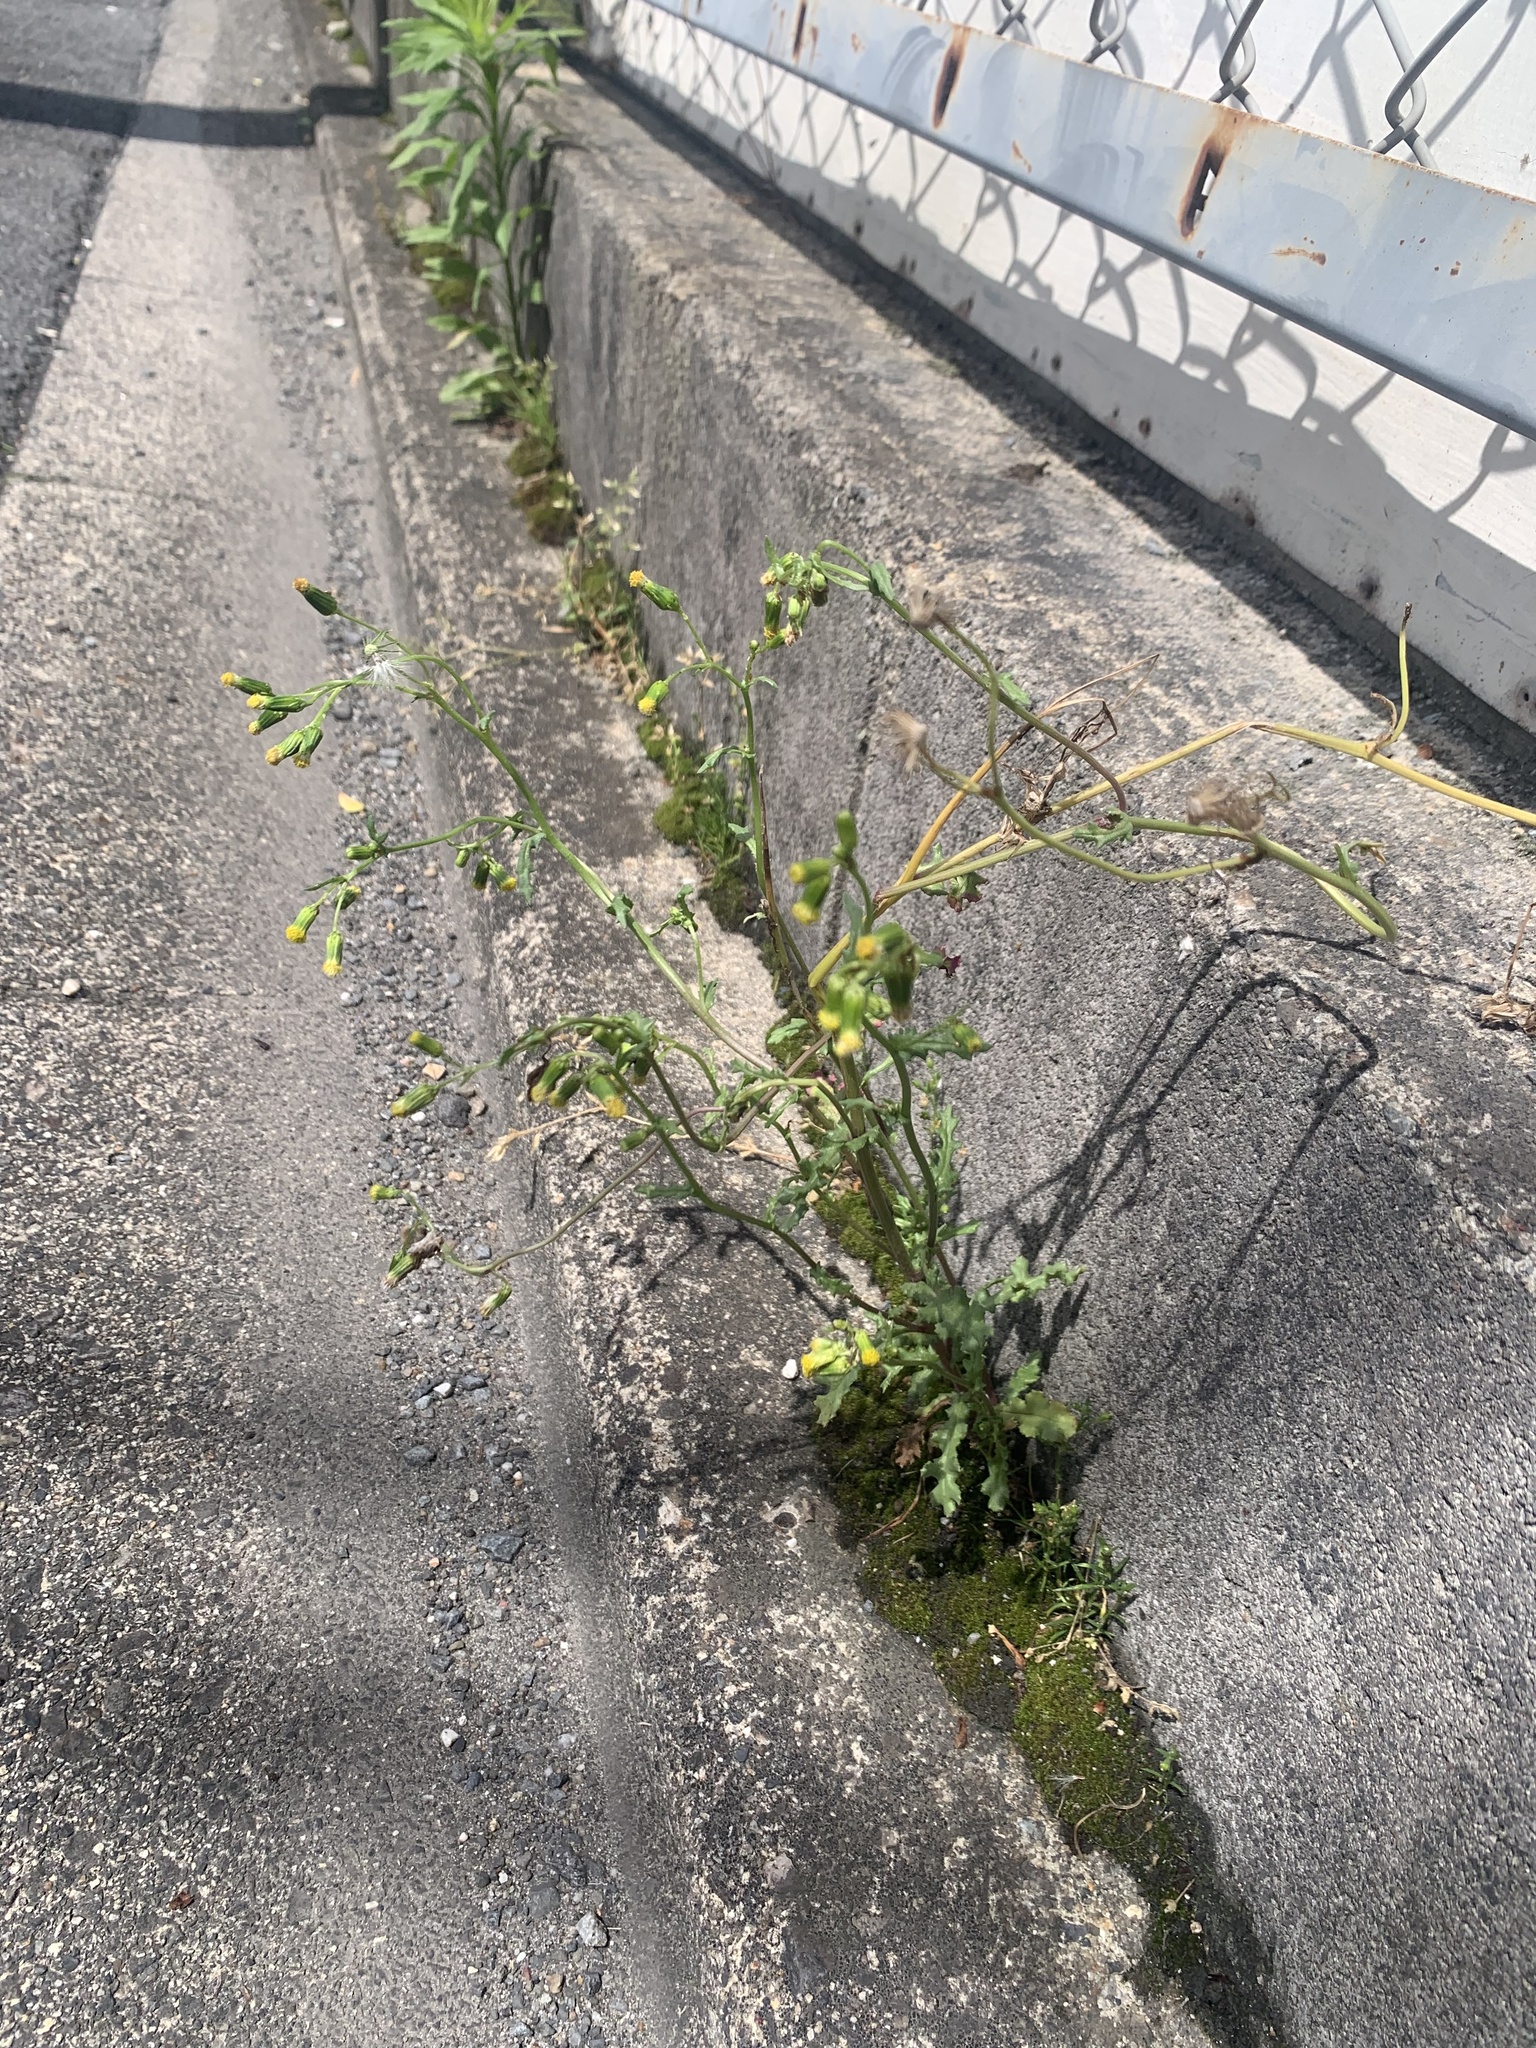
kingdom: Plantae
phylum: Tracheophyta
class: Magnoliopsida
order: Asterales
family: Asteraceae
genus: Senecio
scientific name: Senecio vulgaris
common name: Old-man-in-the-spring
